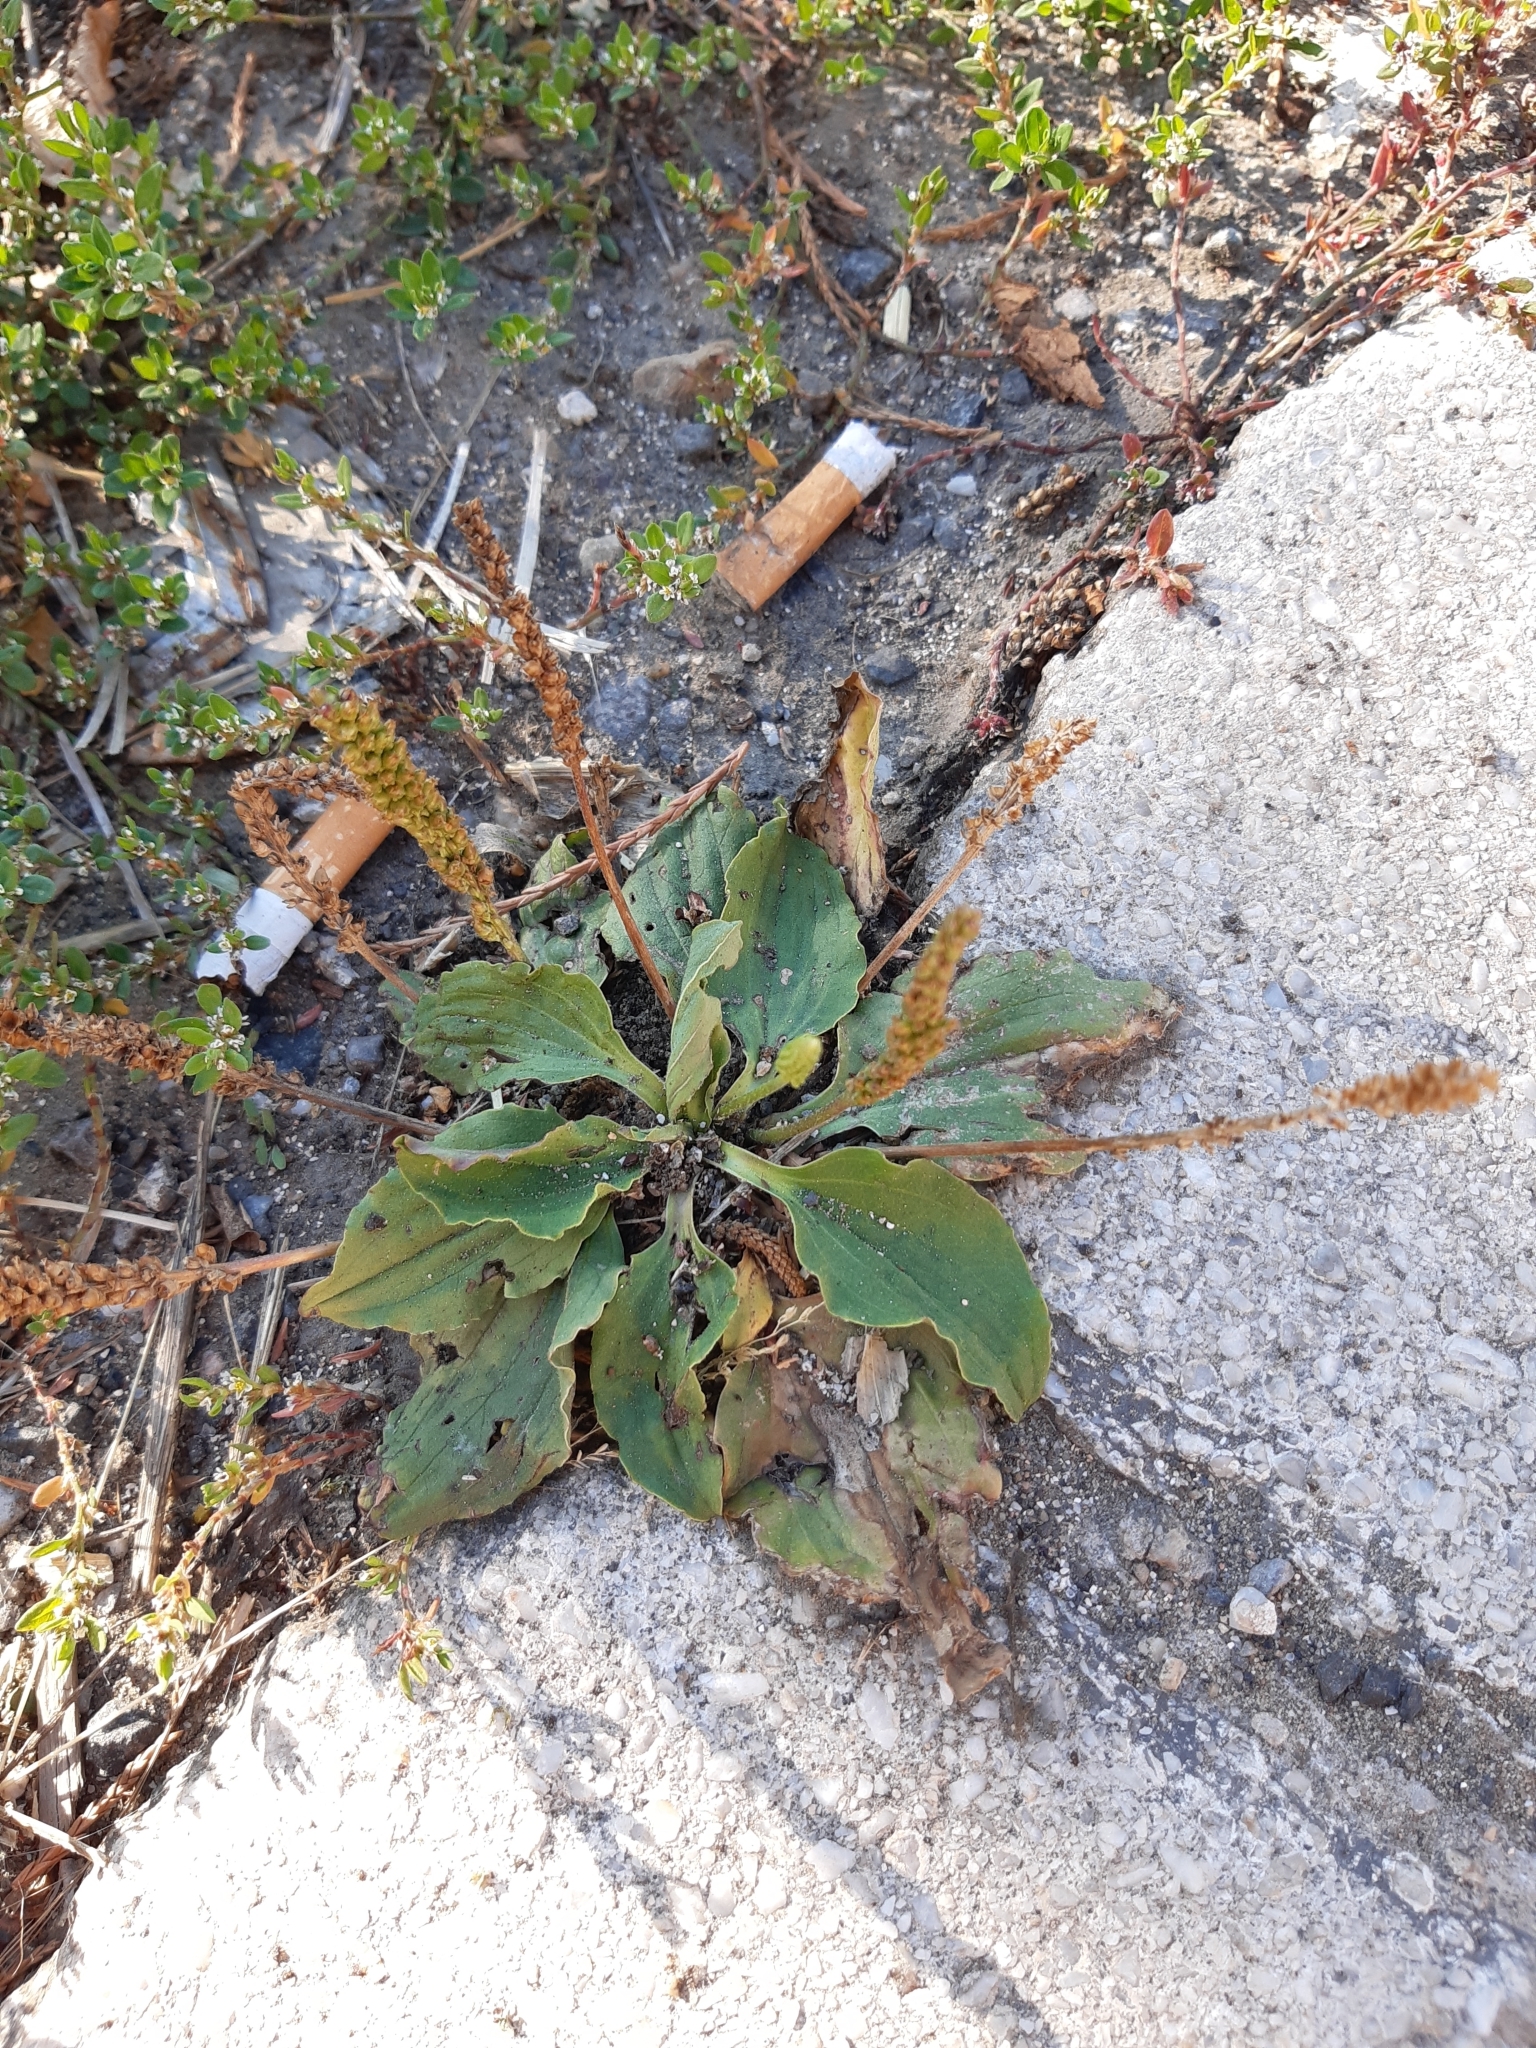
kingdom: Plantae
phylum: Tracheophyta
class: Magnoliopsida
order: Lamiales
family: Plantaginaceae
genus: Plantago
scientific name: Plantago major
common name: Common plantain
